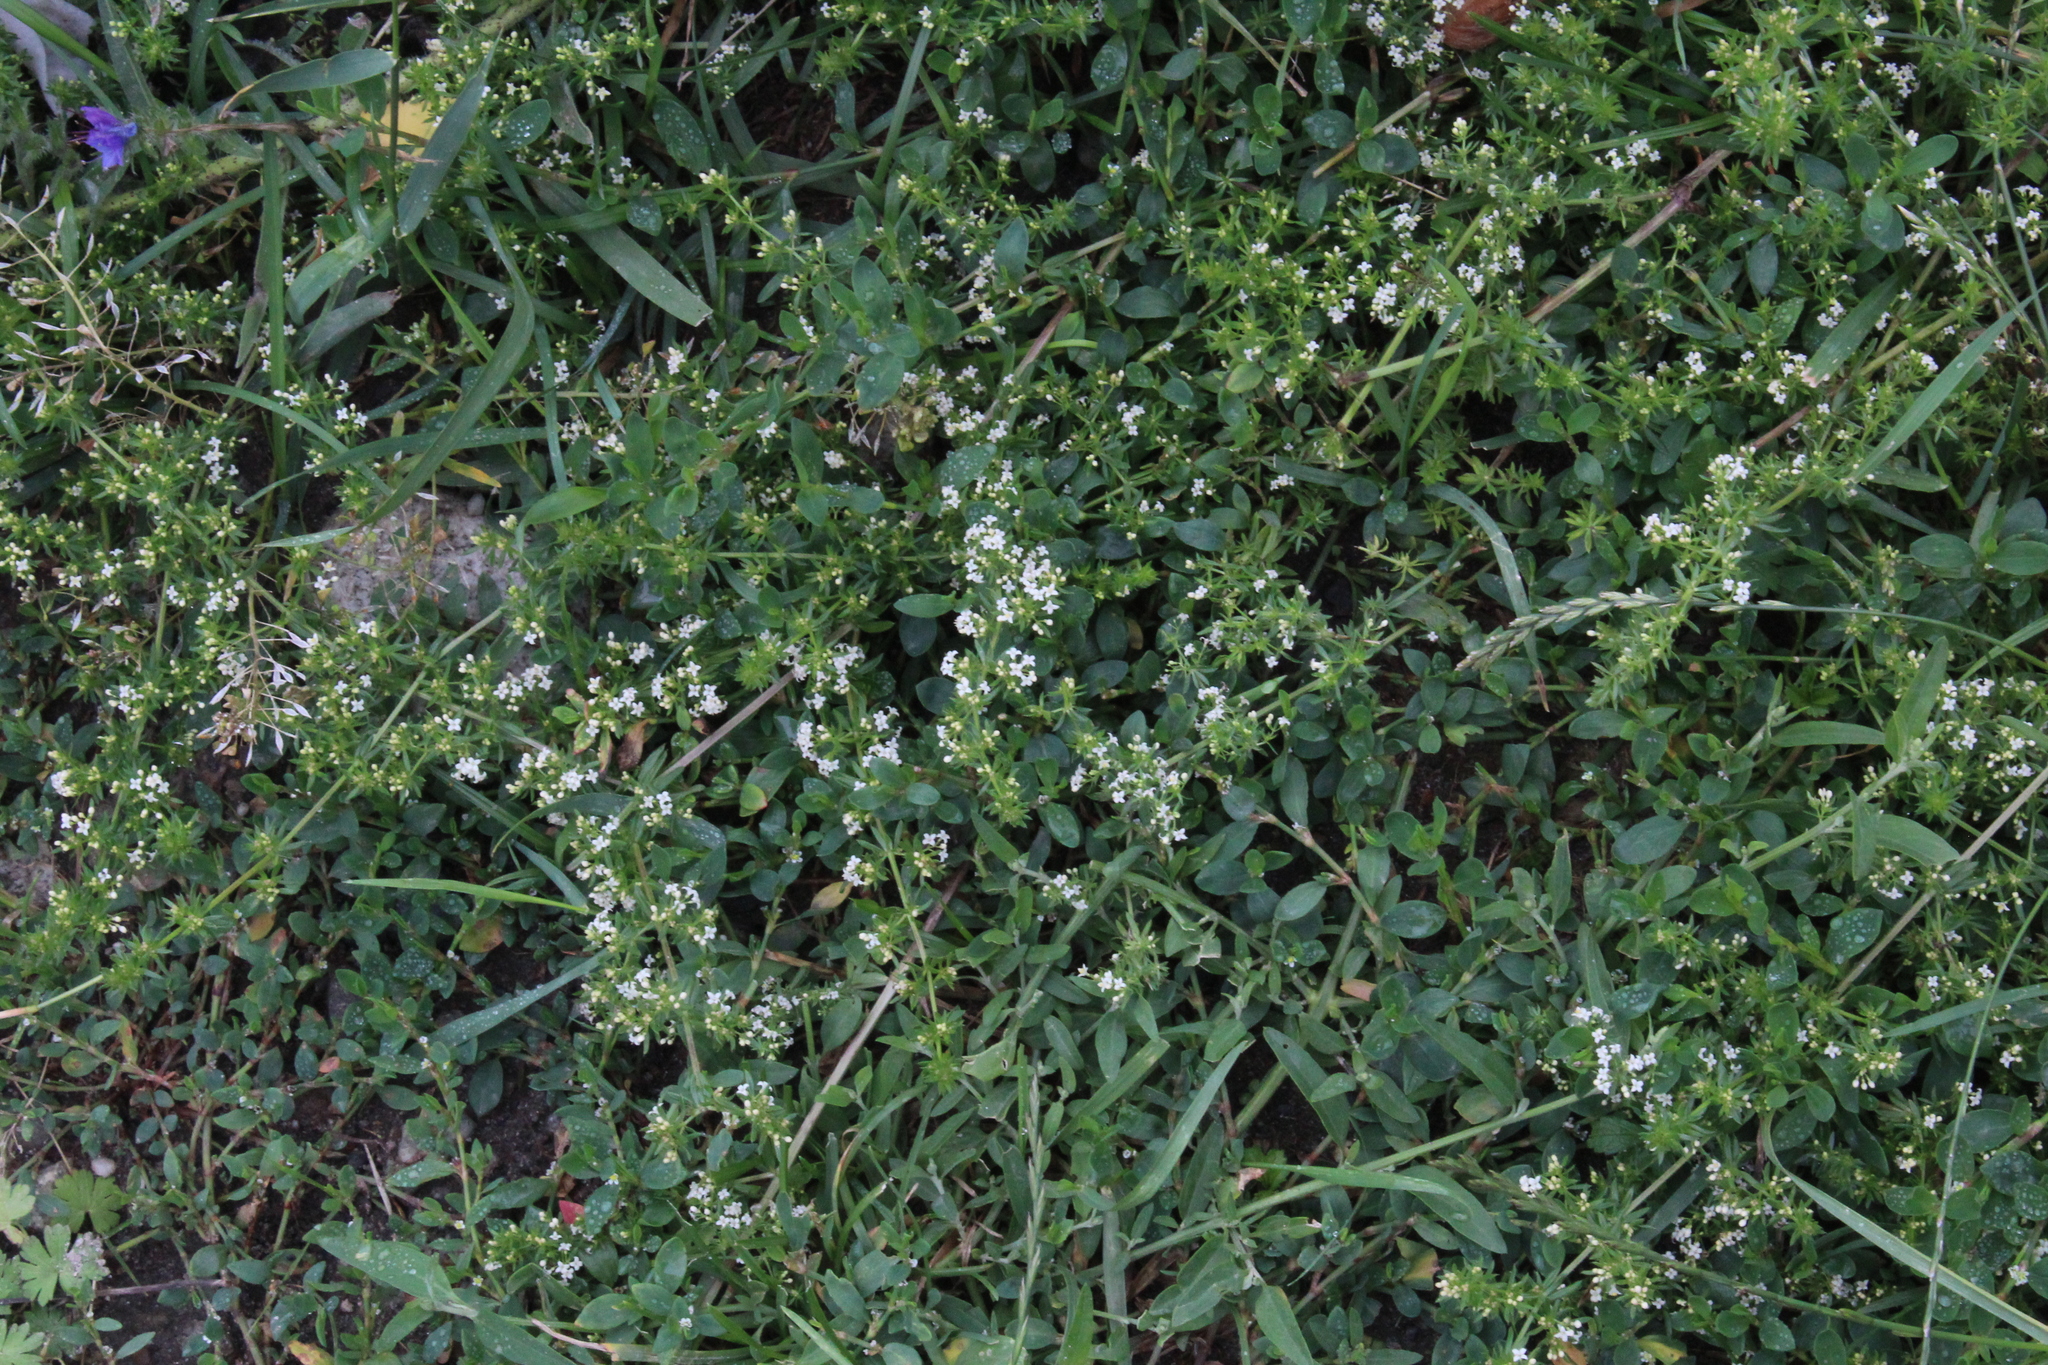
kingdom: Plantae
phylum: Tracheophyta
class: Magnoliopsida
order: Gentianales
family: Rubiaceae
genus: Galium
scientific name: Galium humifusum
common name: Spreading bedstraw
